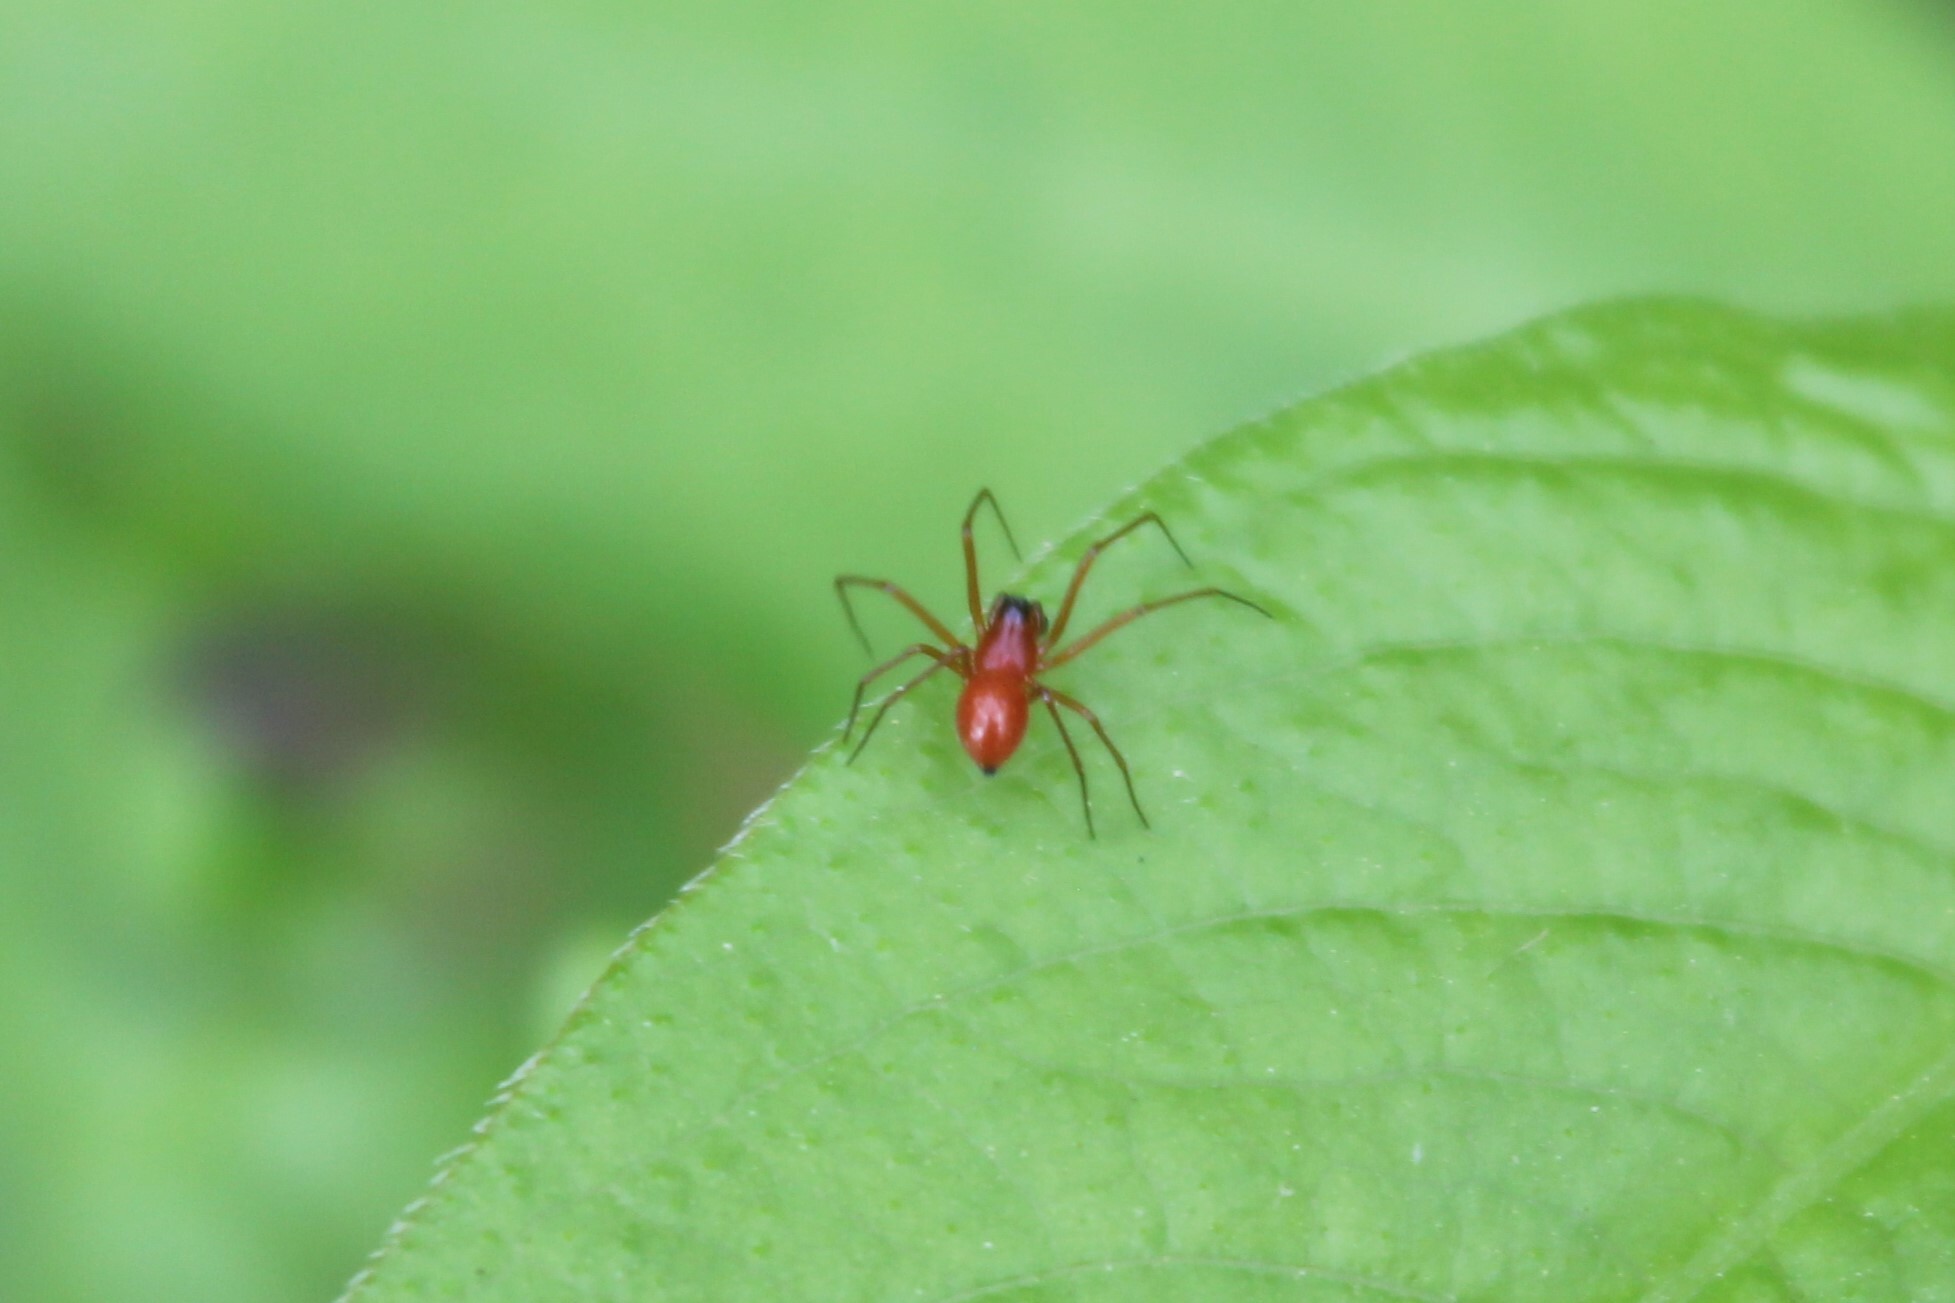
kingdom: Animalia
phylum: Arthropoda
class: Arachnida
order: Araneae
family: Linyphiidae
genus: Florinda
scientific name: Florinda coccinea
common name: Black-tailed red sheetweaver
